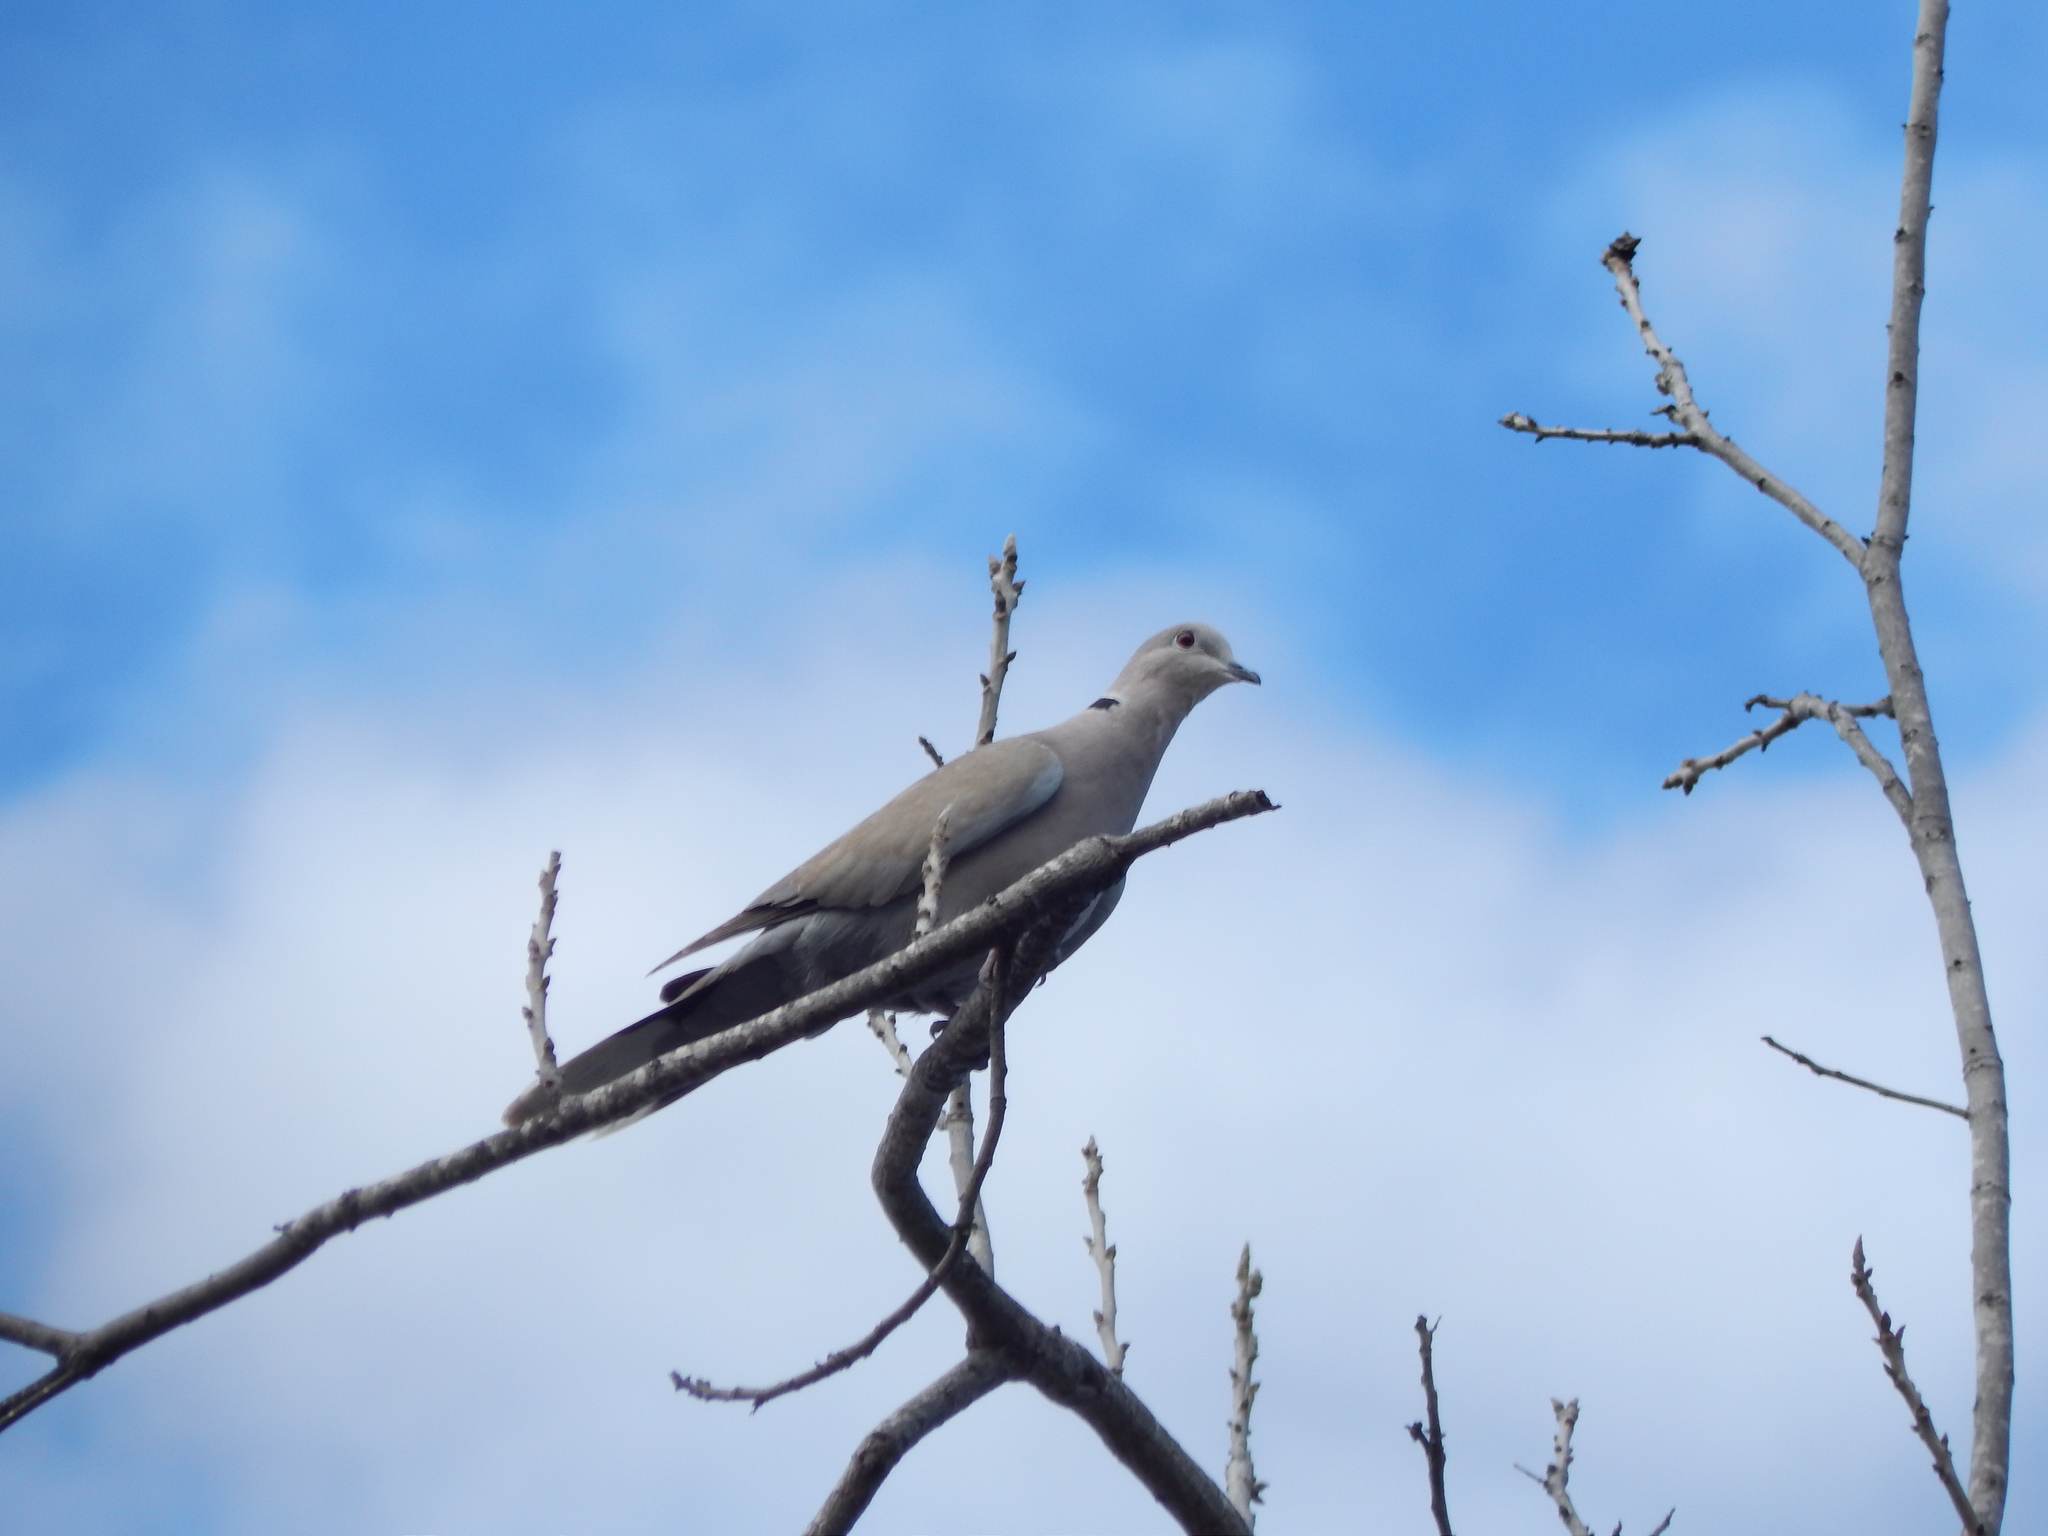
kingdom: Animalia
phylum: Chordata
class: Aves
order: Columbiformes
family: Columbidae
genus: Streptopelia
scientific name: Streptopelia decaocto
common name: Eurasian collared dove
